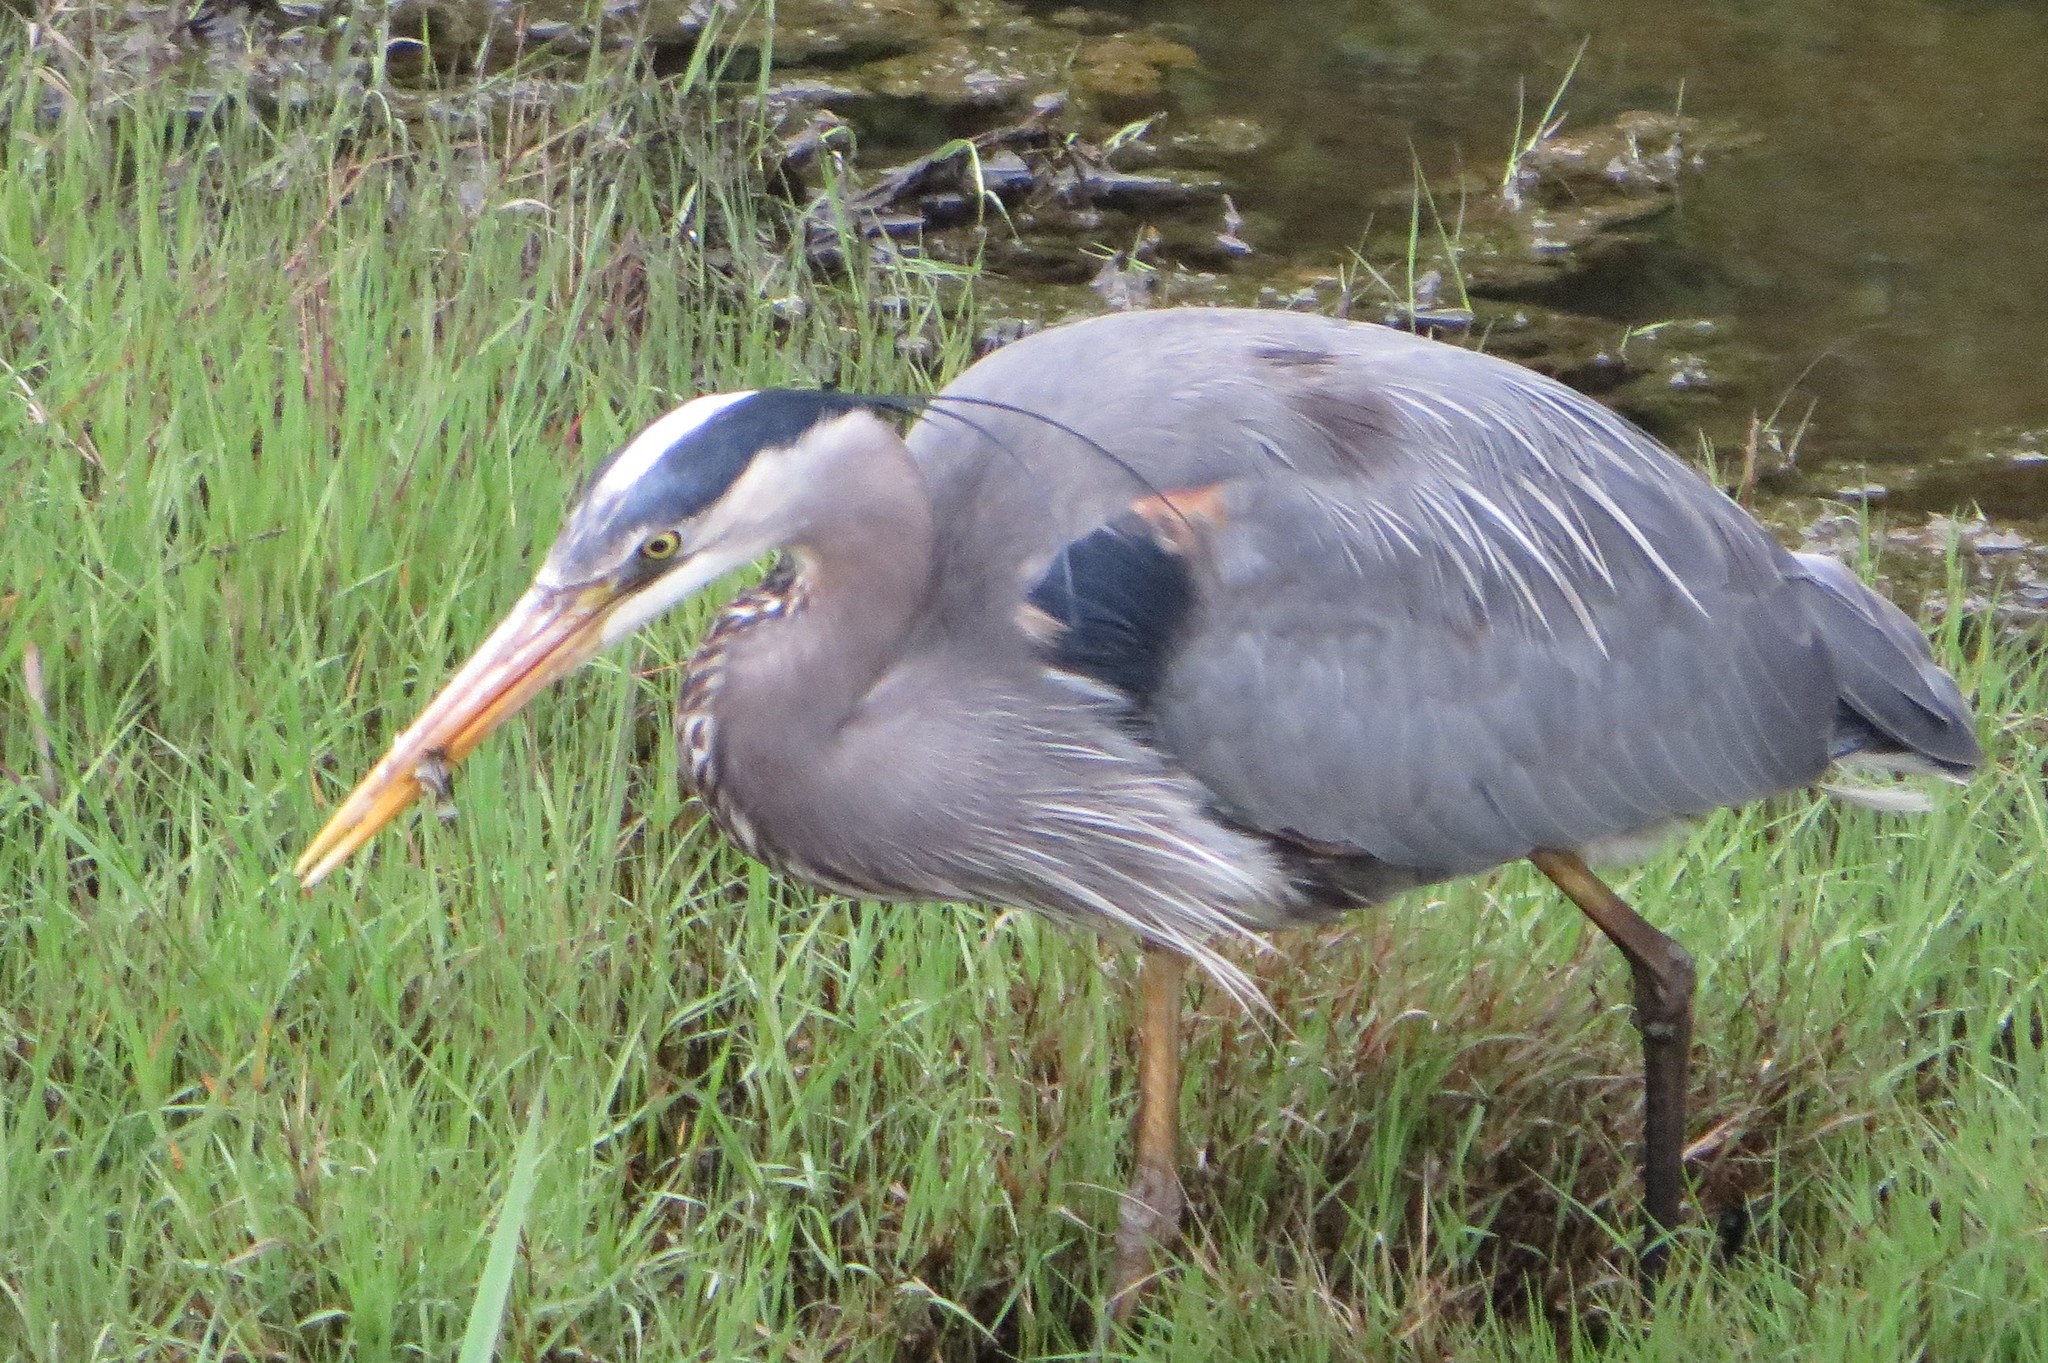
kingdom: Animalia
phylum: Chordata
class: Aves
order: Pelecaniformes
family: Ardeidae
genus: Ardea
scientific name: Ardea herodias
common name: Great blue heron
